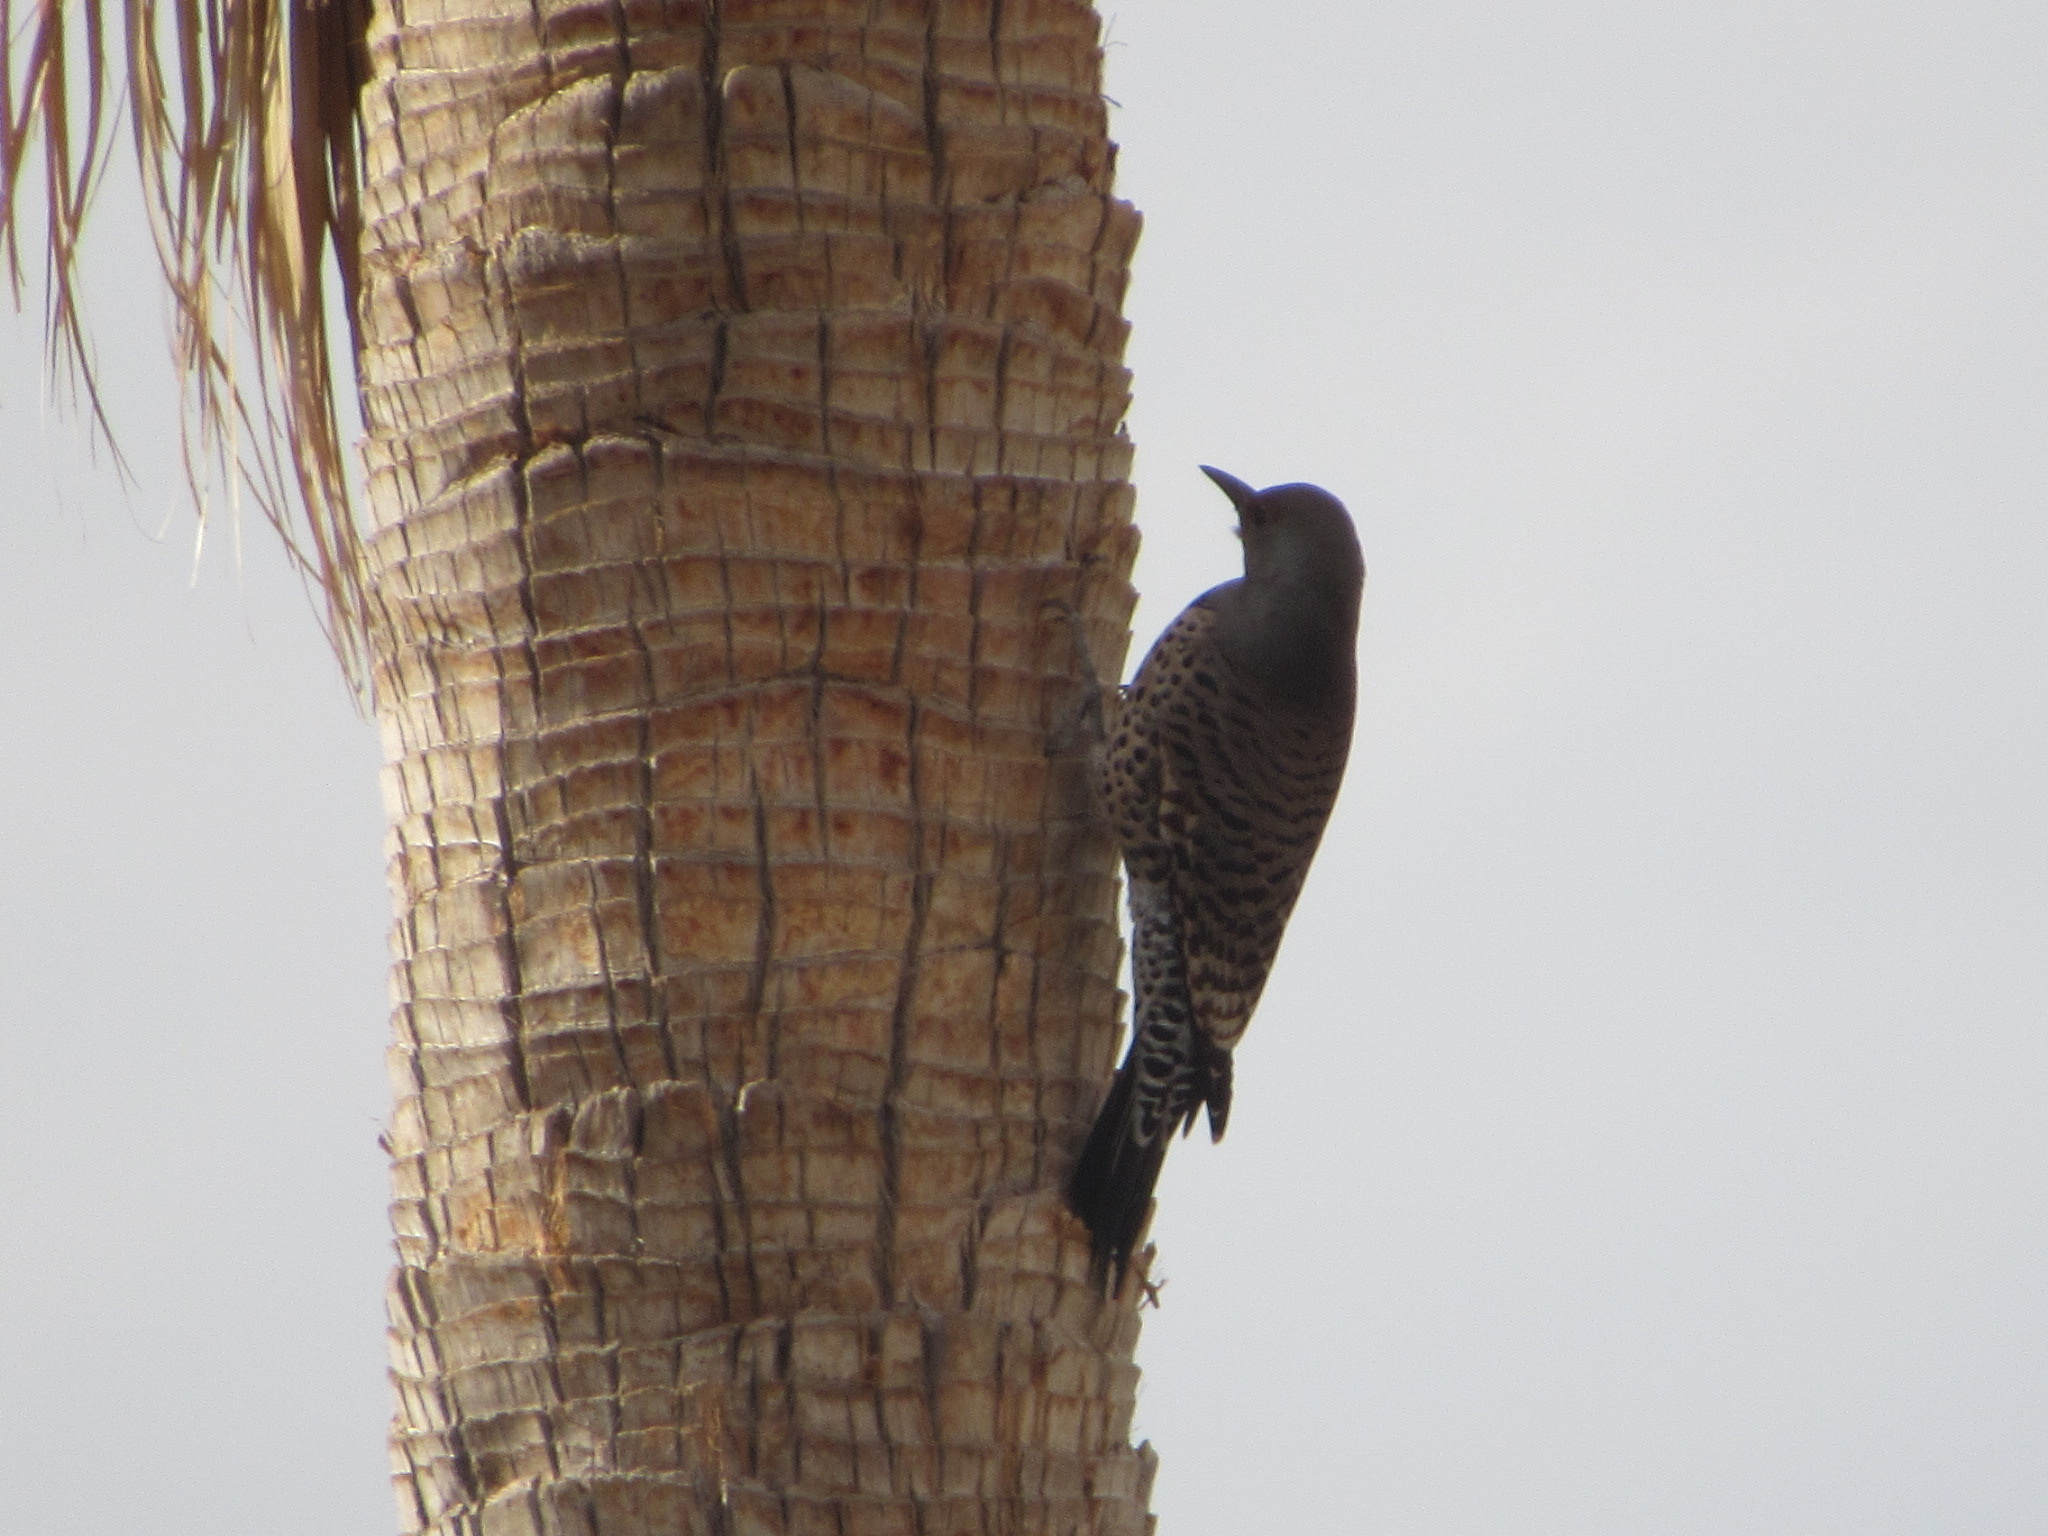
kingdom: Animalia
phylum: Chordata
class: Aves
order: Piciformes
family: Picidae
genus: Colaptes
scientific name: Colaptes auratus
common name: Northern flicker
